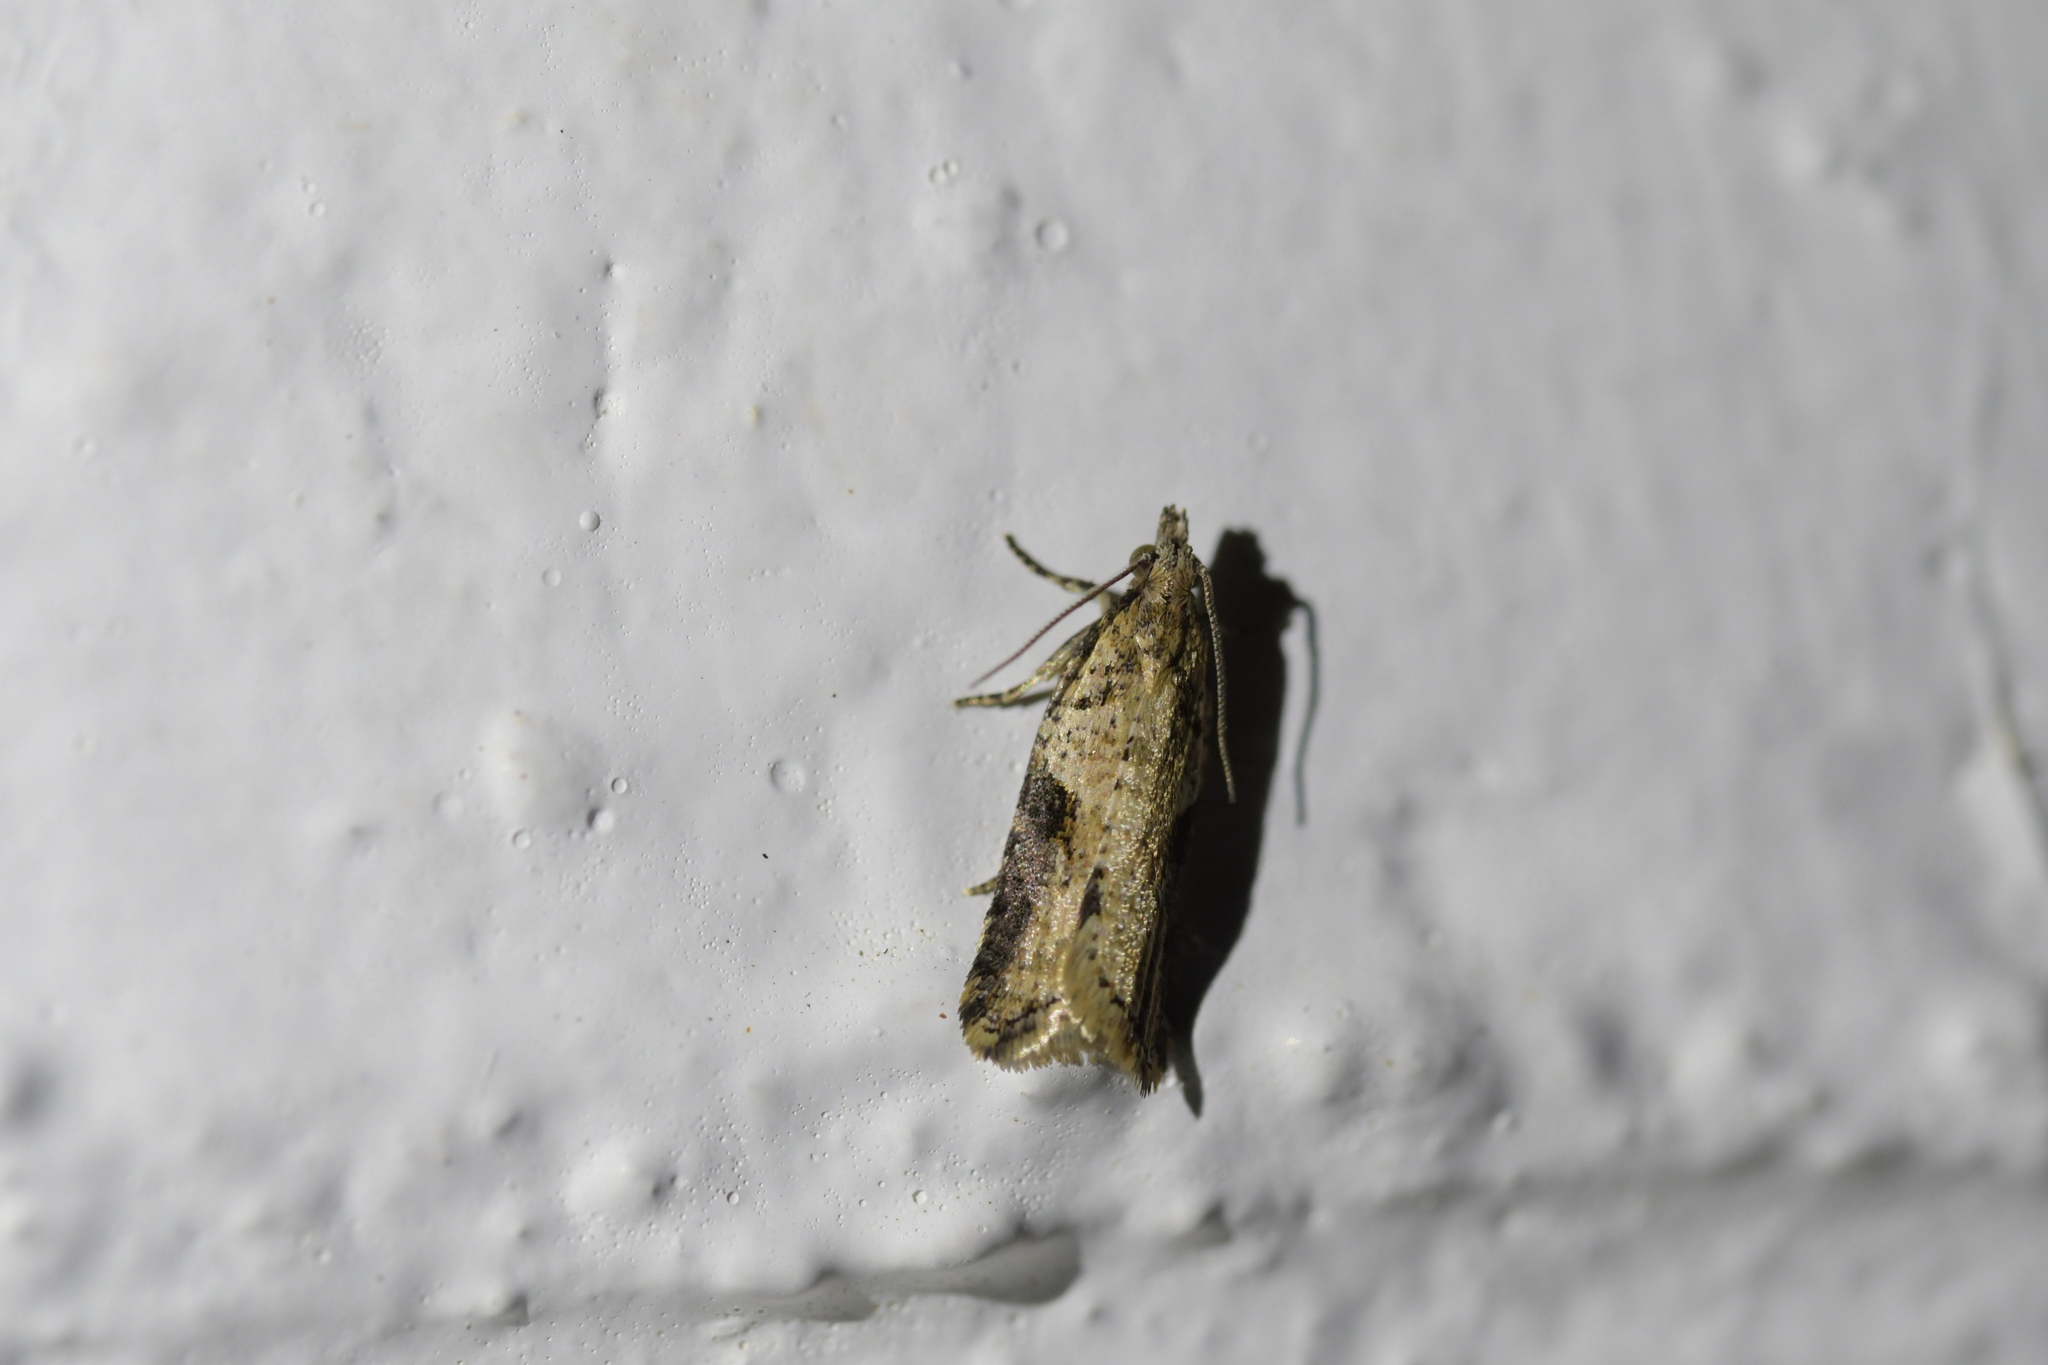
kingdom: Animalia
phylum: Arthropoda
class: Insecta
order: Lepidoptera
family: Tortricidae
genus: Capua
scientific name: Capua semiferana
